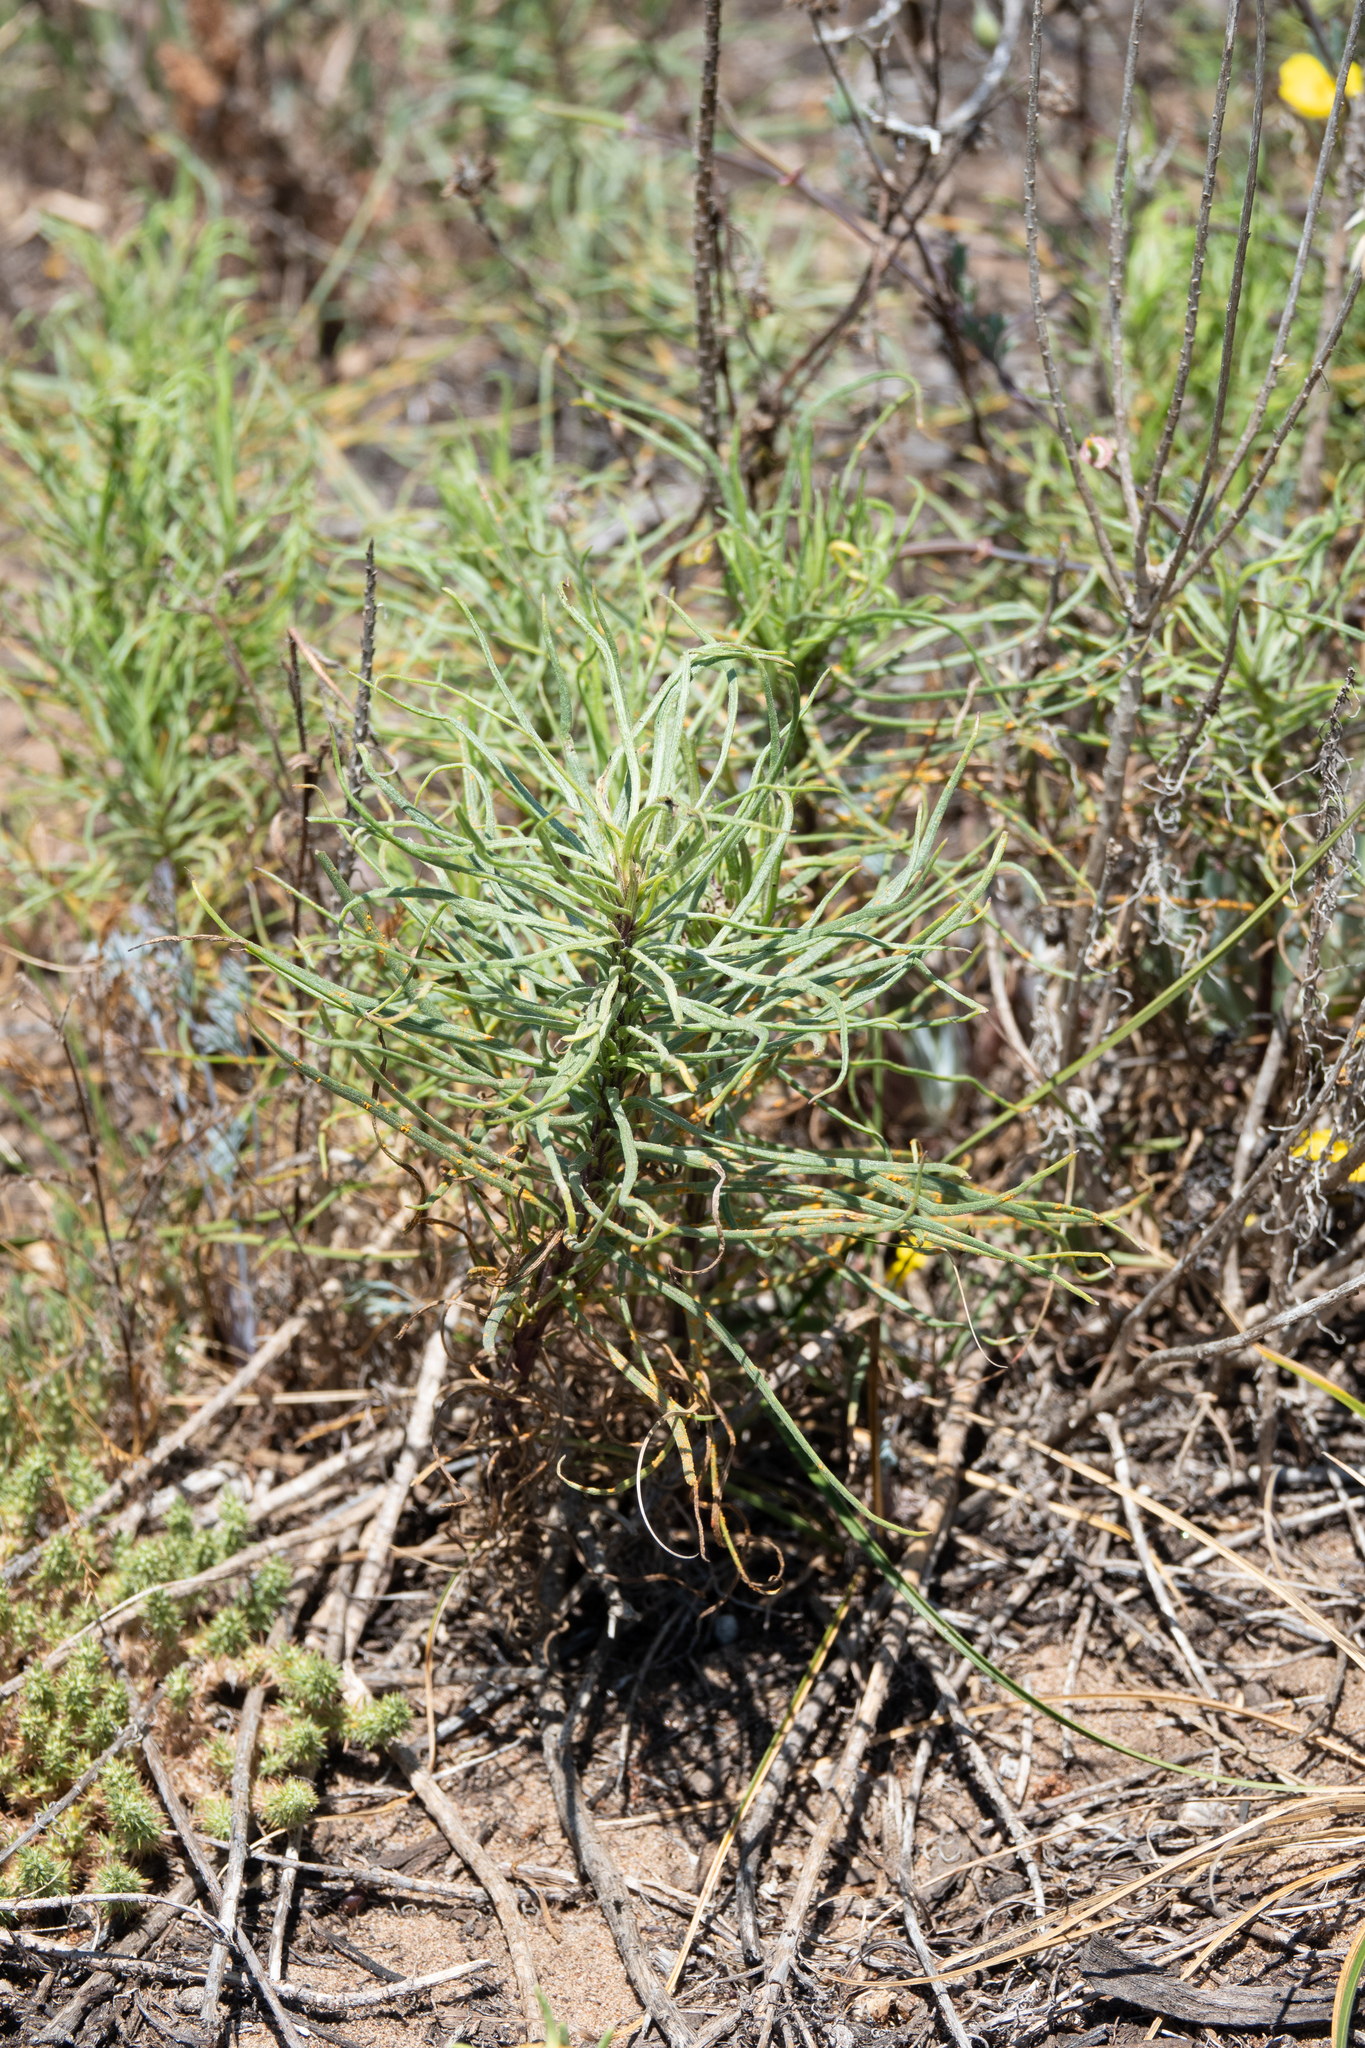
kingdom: Plantae
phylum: Tracheophyta
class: Magnoliopsida
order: Asterales
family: Asteraceae
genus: Senecio
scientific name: Senecio blochmaniae
